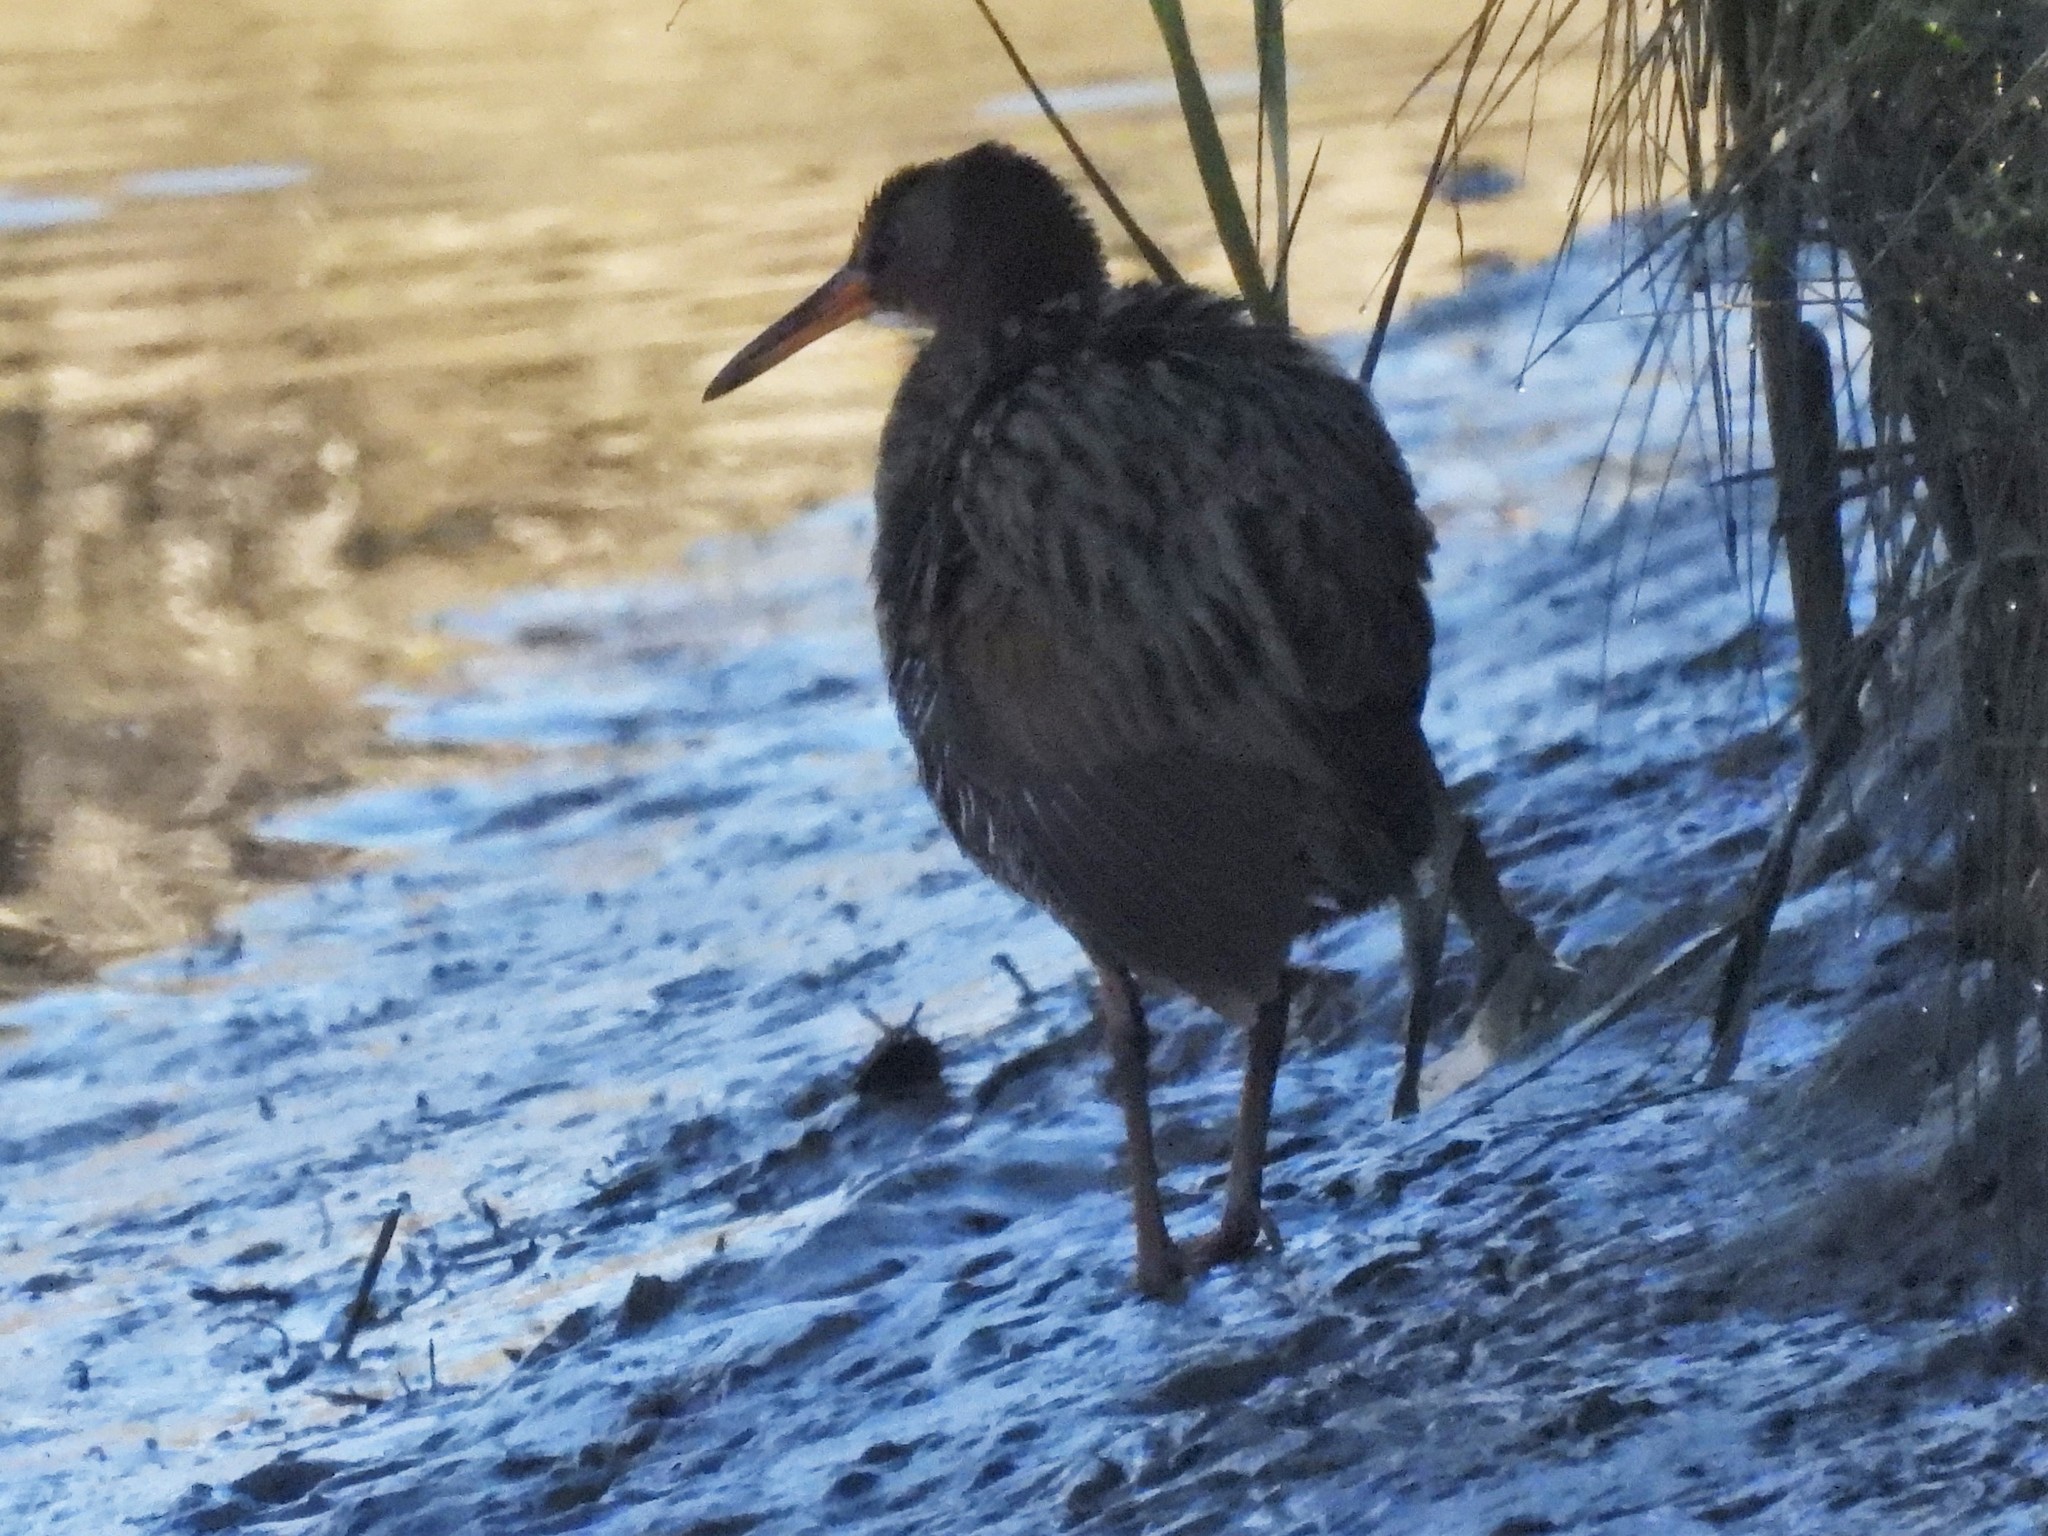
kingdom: Animalia
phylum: Chordata
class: Aves
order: Gruiformes
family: Rallidae
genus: Rallus
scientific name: Rallus obsoletus
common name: Ridgway's rail
